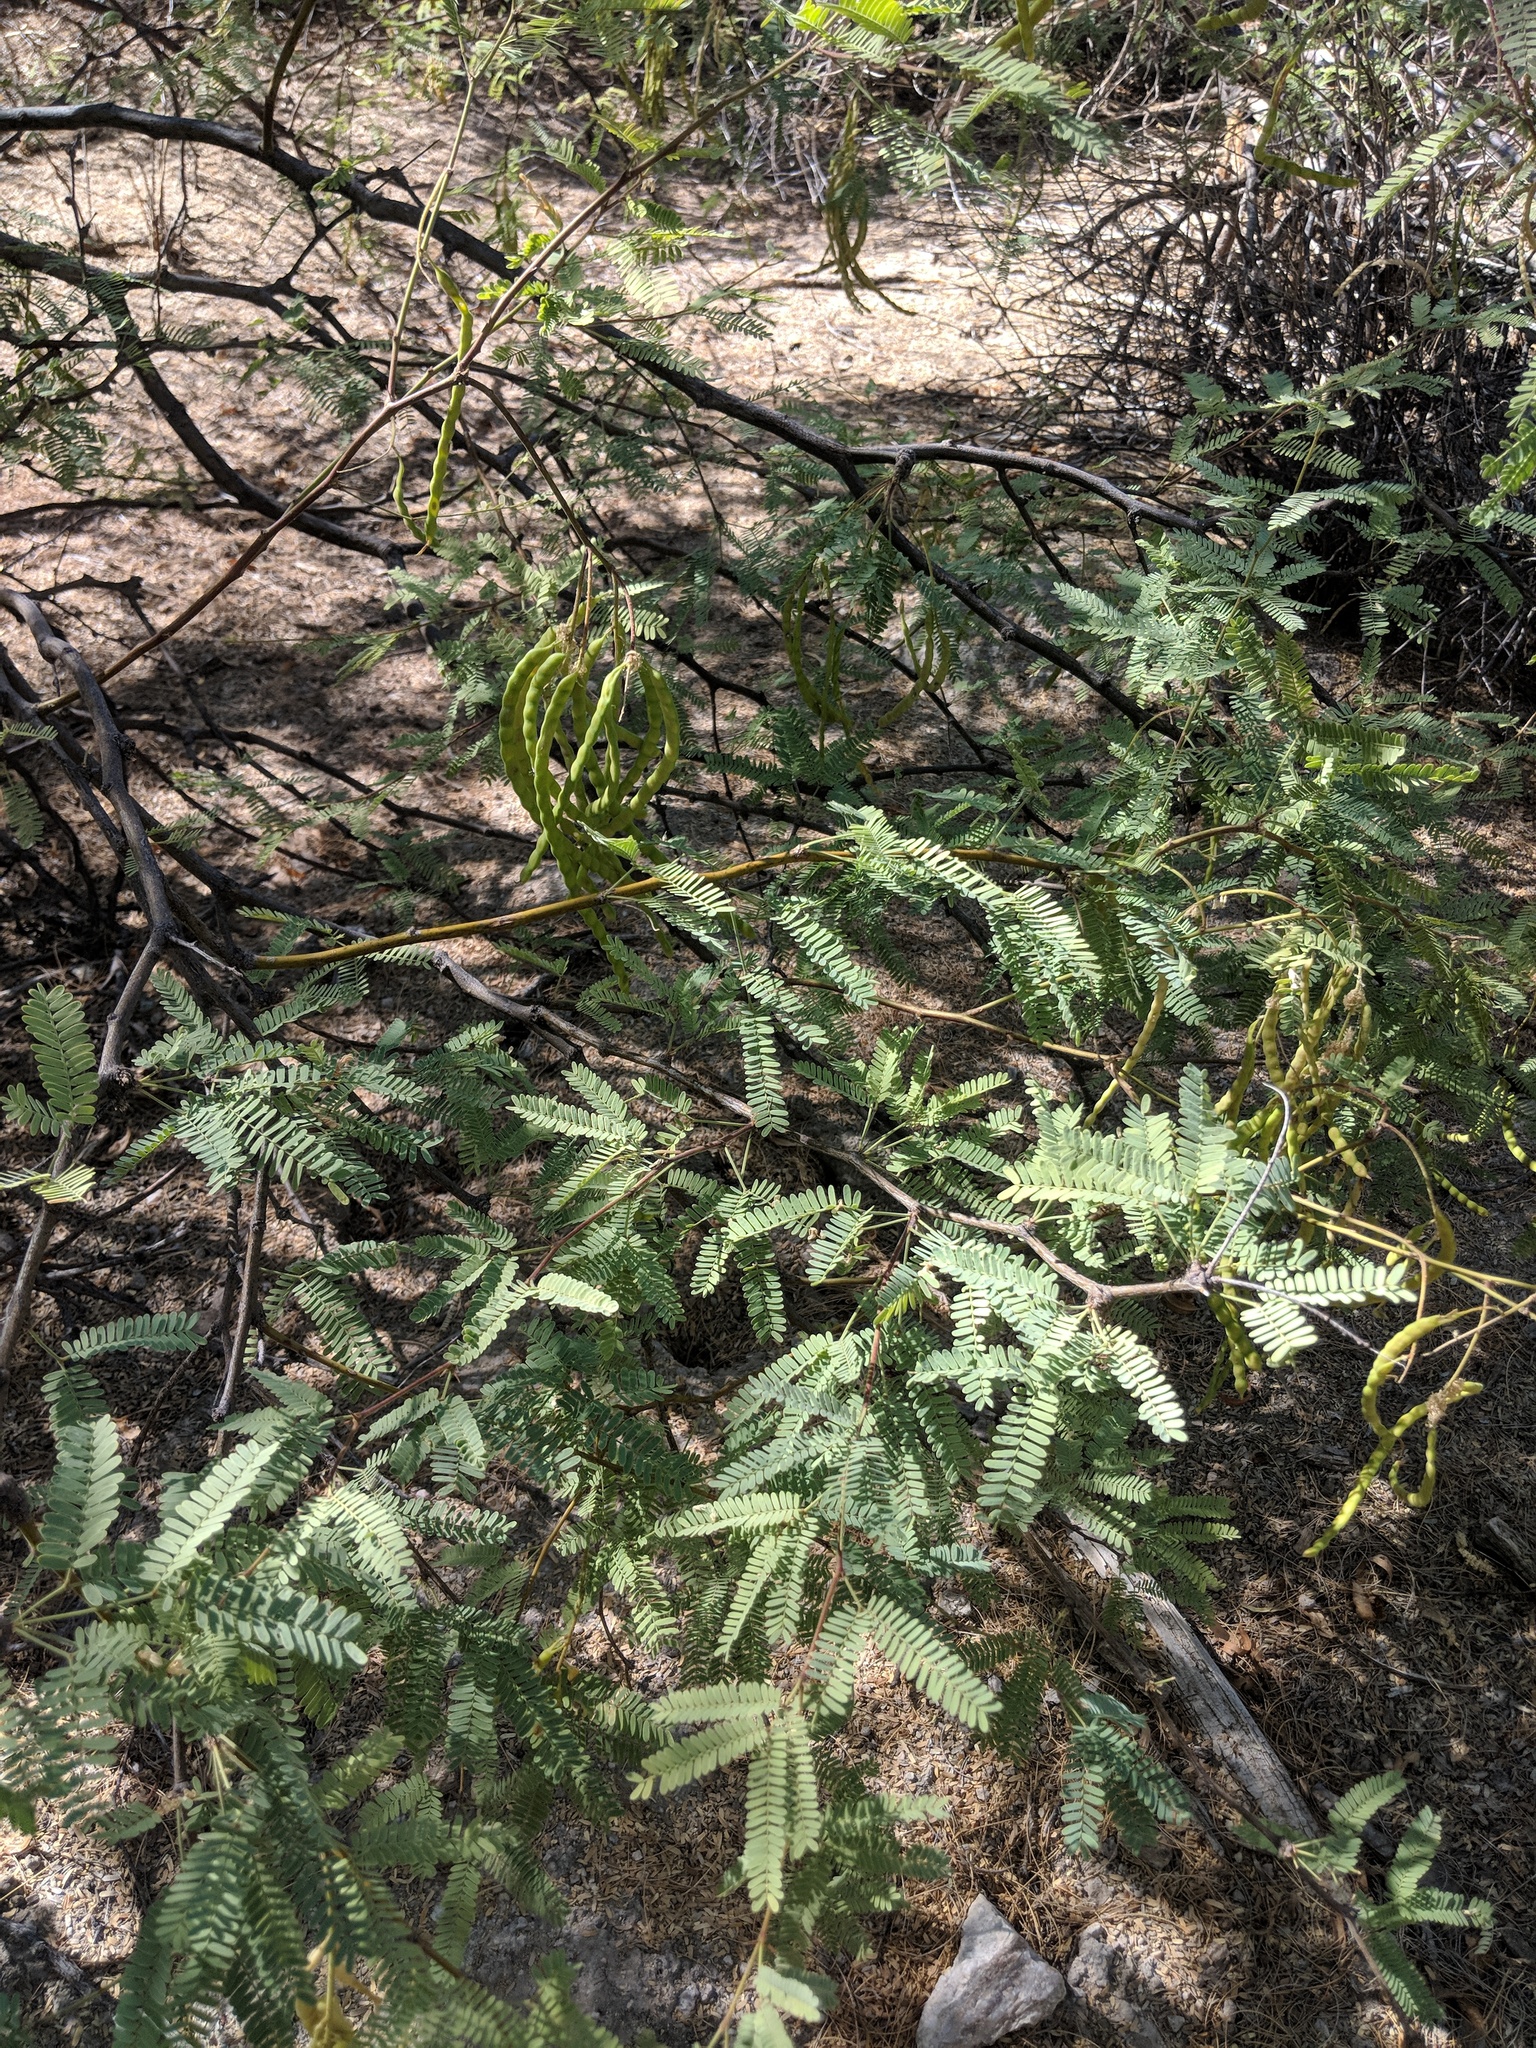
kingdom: Plantae
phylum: Tracheophyta
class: Magnoliopsida
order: Fabales
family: Fabaceae
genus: Prosopis
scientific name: Prosopis velutina
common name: Velvet mesquite
